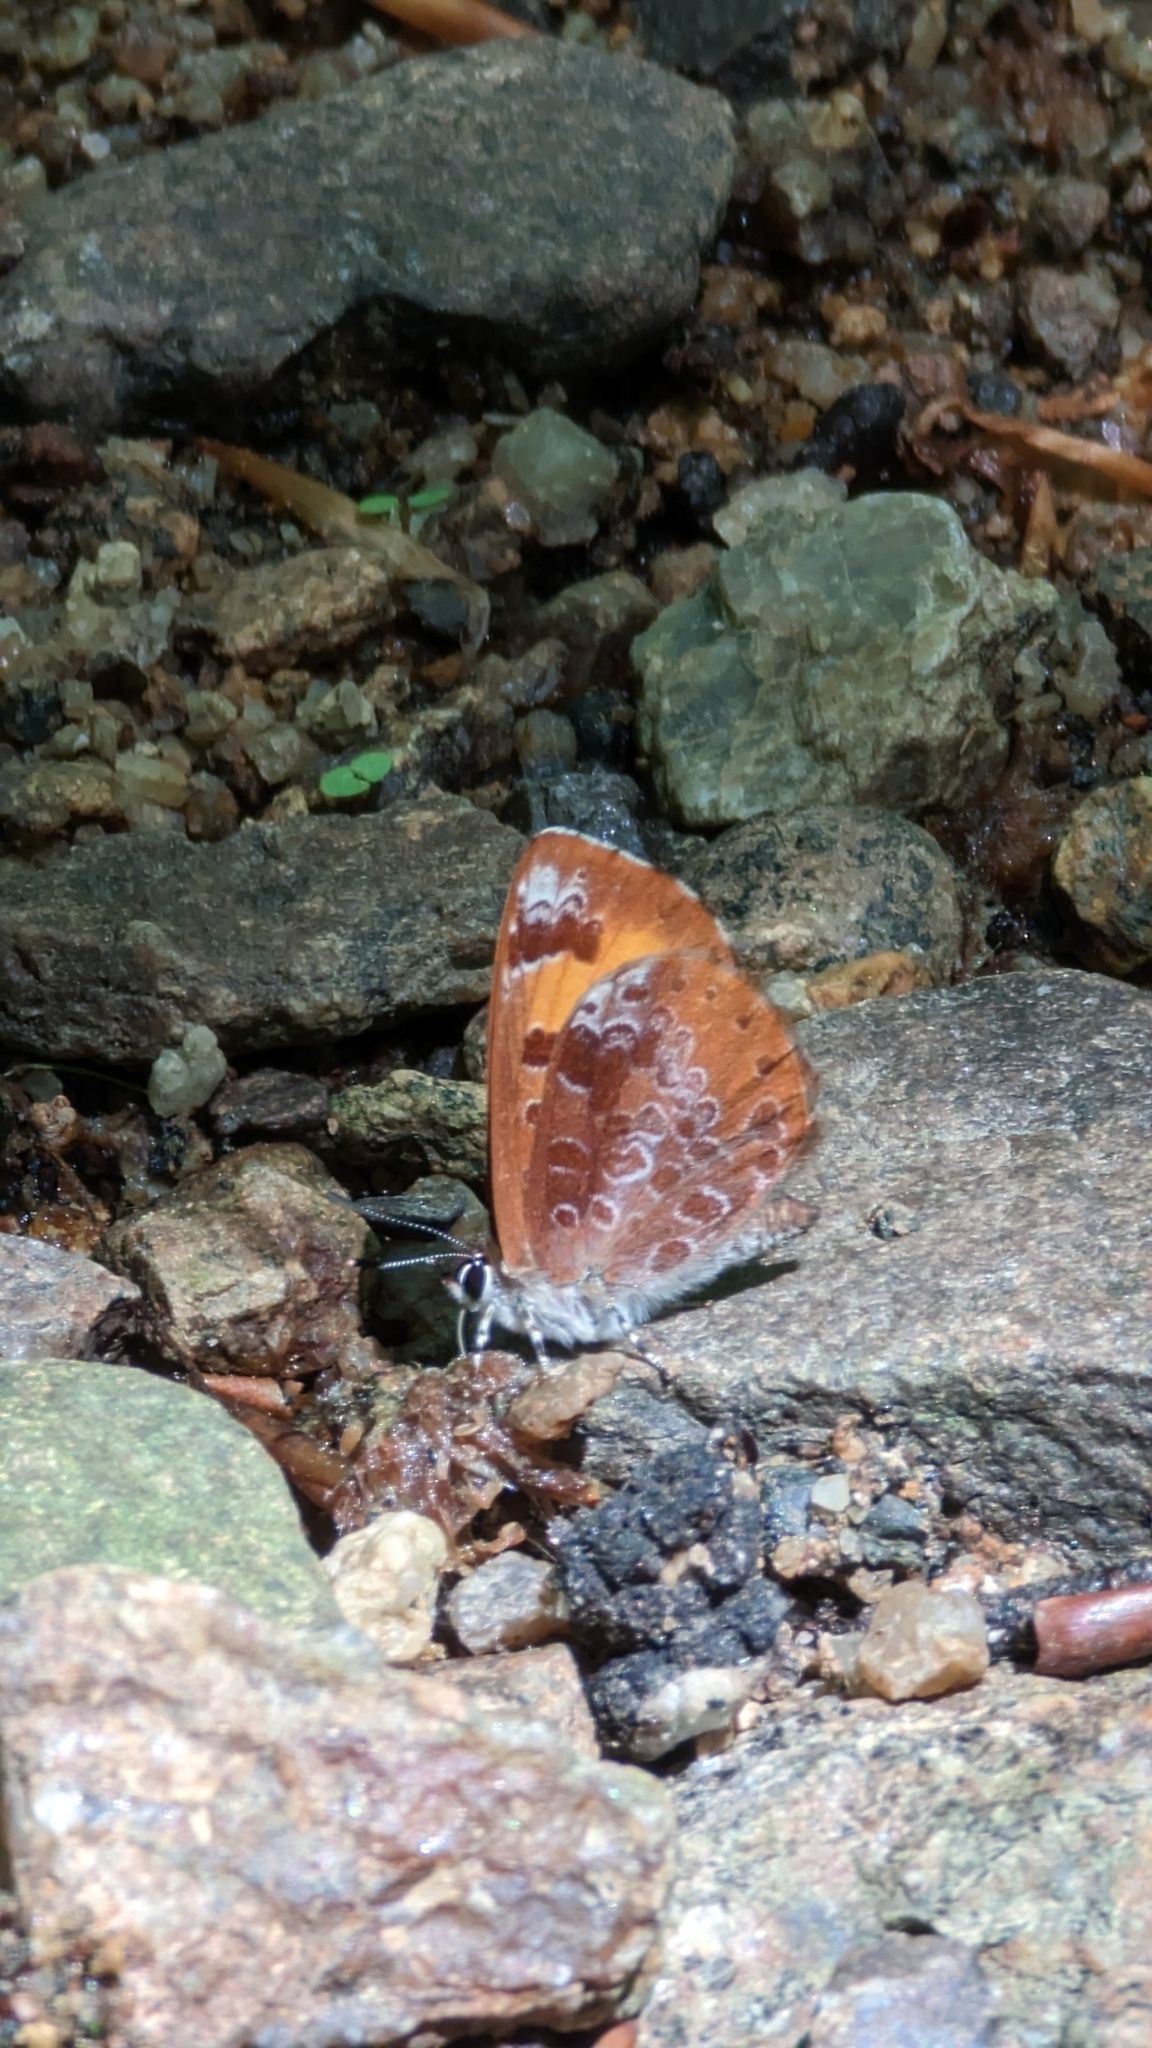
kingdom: Animalia
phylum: Arthropoda
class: Insecta
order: Lepidoptera
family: Lycaenidae
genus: Feniseca
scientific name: Feniseca tarquinius
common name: Harvester
